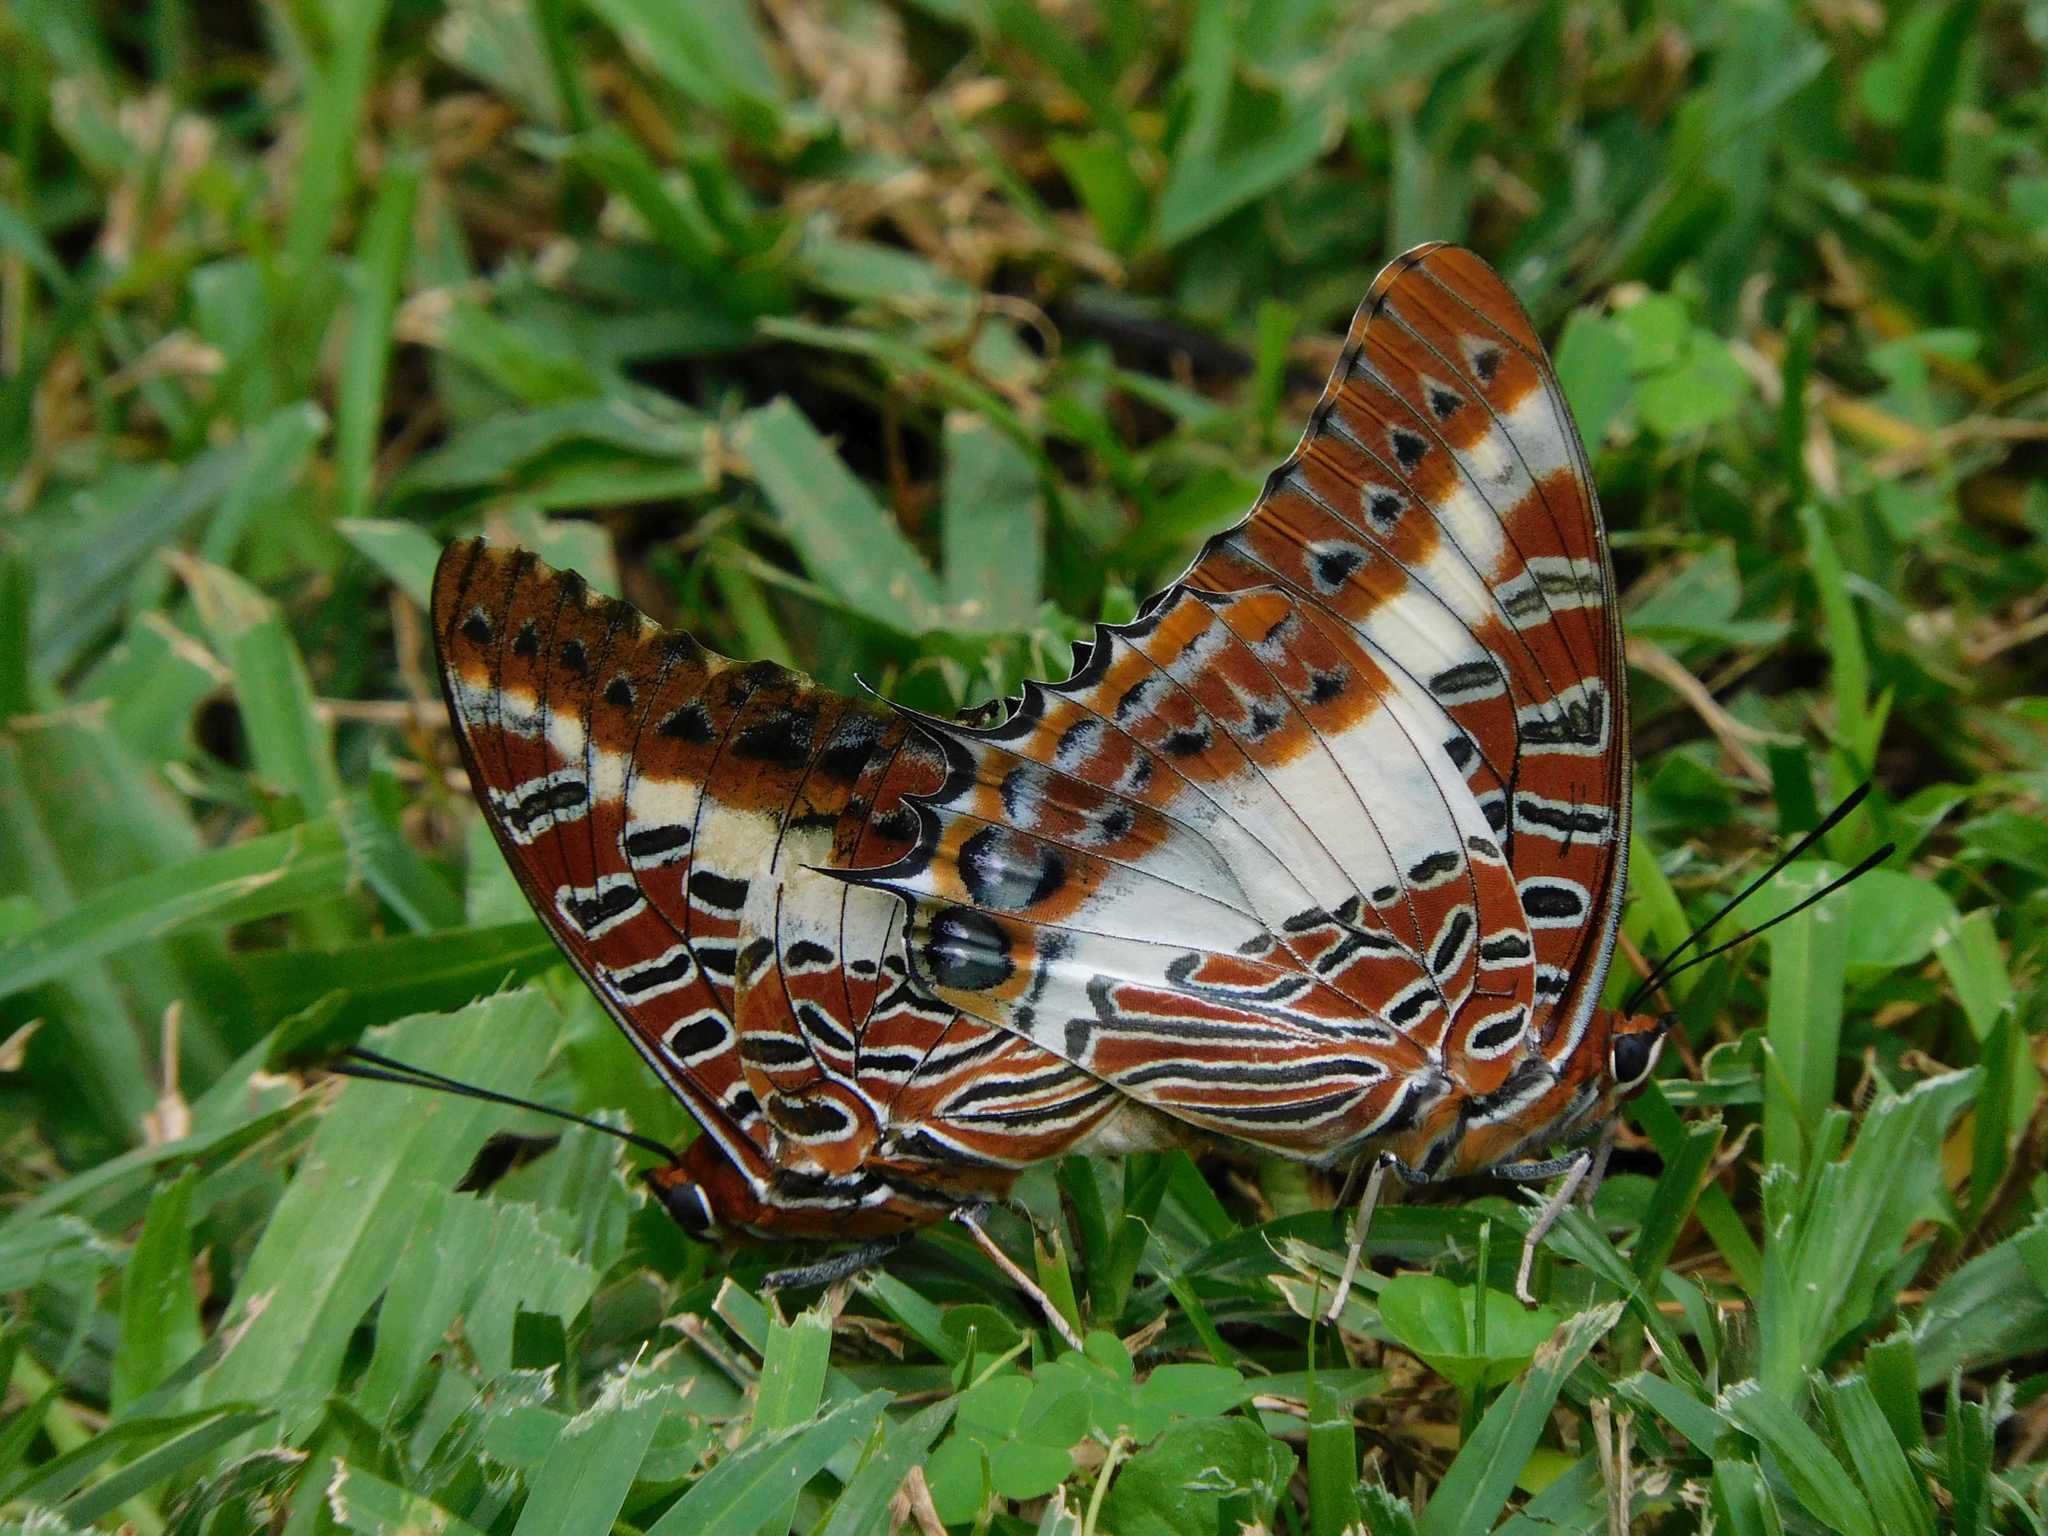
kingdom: Animalia
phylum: Arthropoda
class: Insecta
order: Lepidoptera
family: Nymphalidae
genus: Charaxes
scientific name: Charaxes brutus
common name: White-barred charaxes
